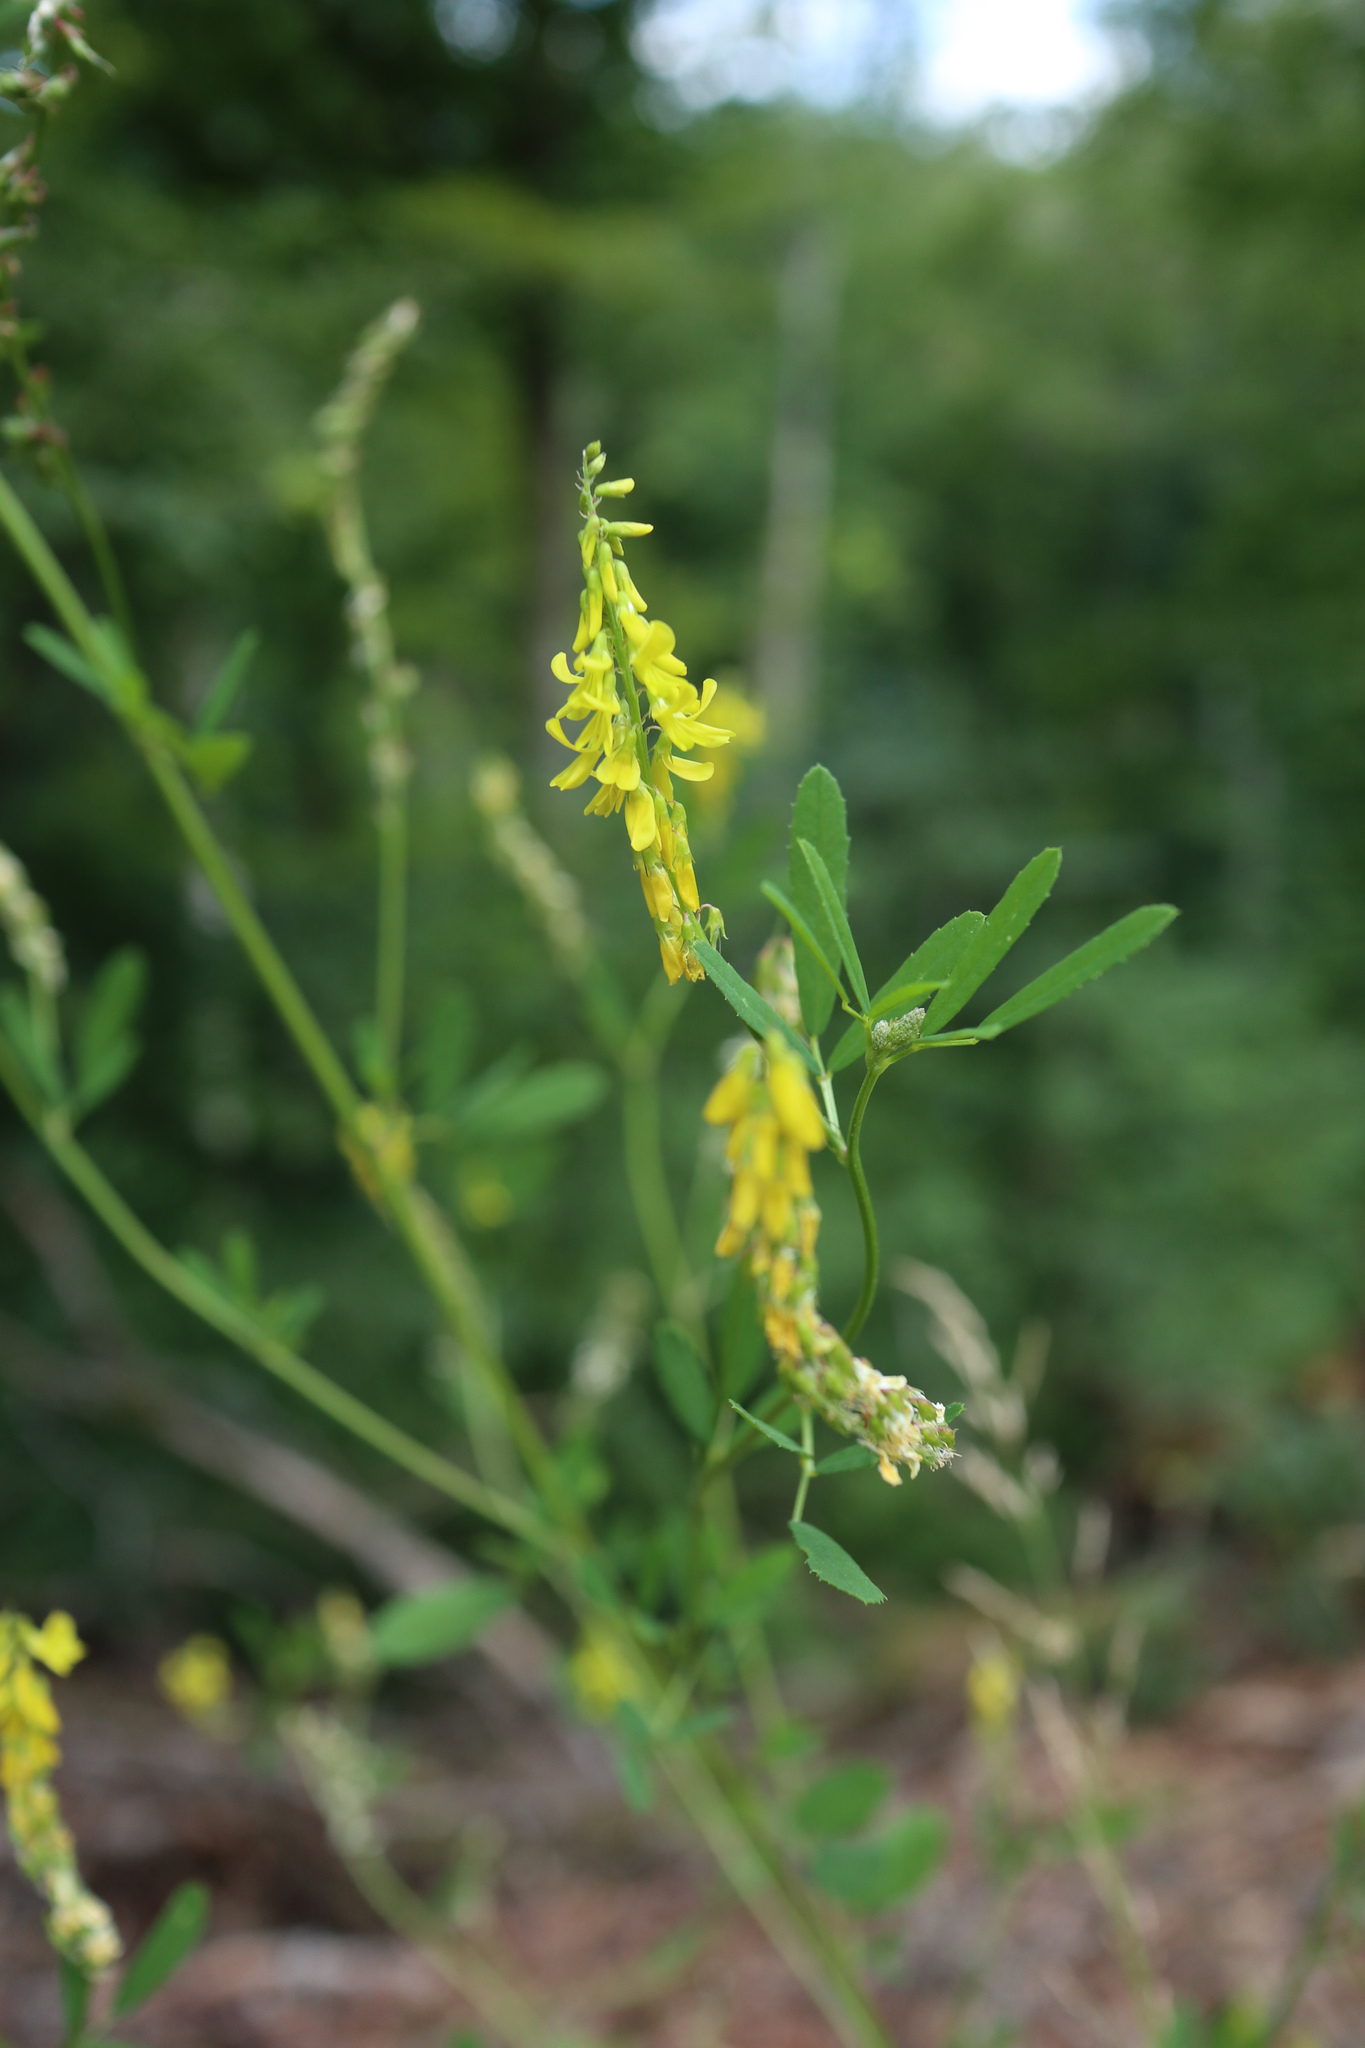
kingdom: Plantae
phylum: Tracheophyta
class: Magnoliopsida
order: Fabales
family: Fabaceae
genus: Melilotus
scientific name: Melilotus officinalis
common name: Sweetclover
